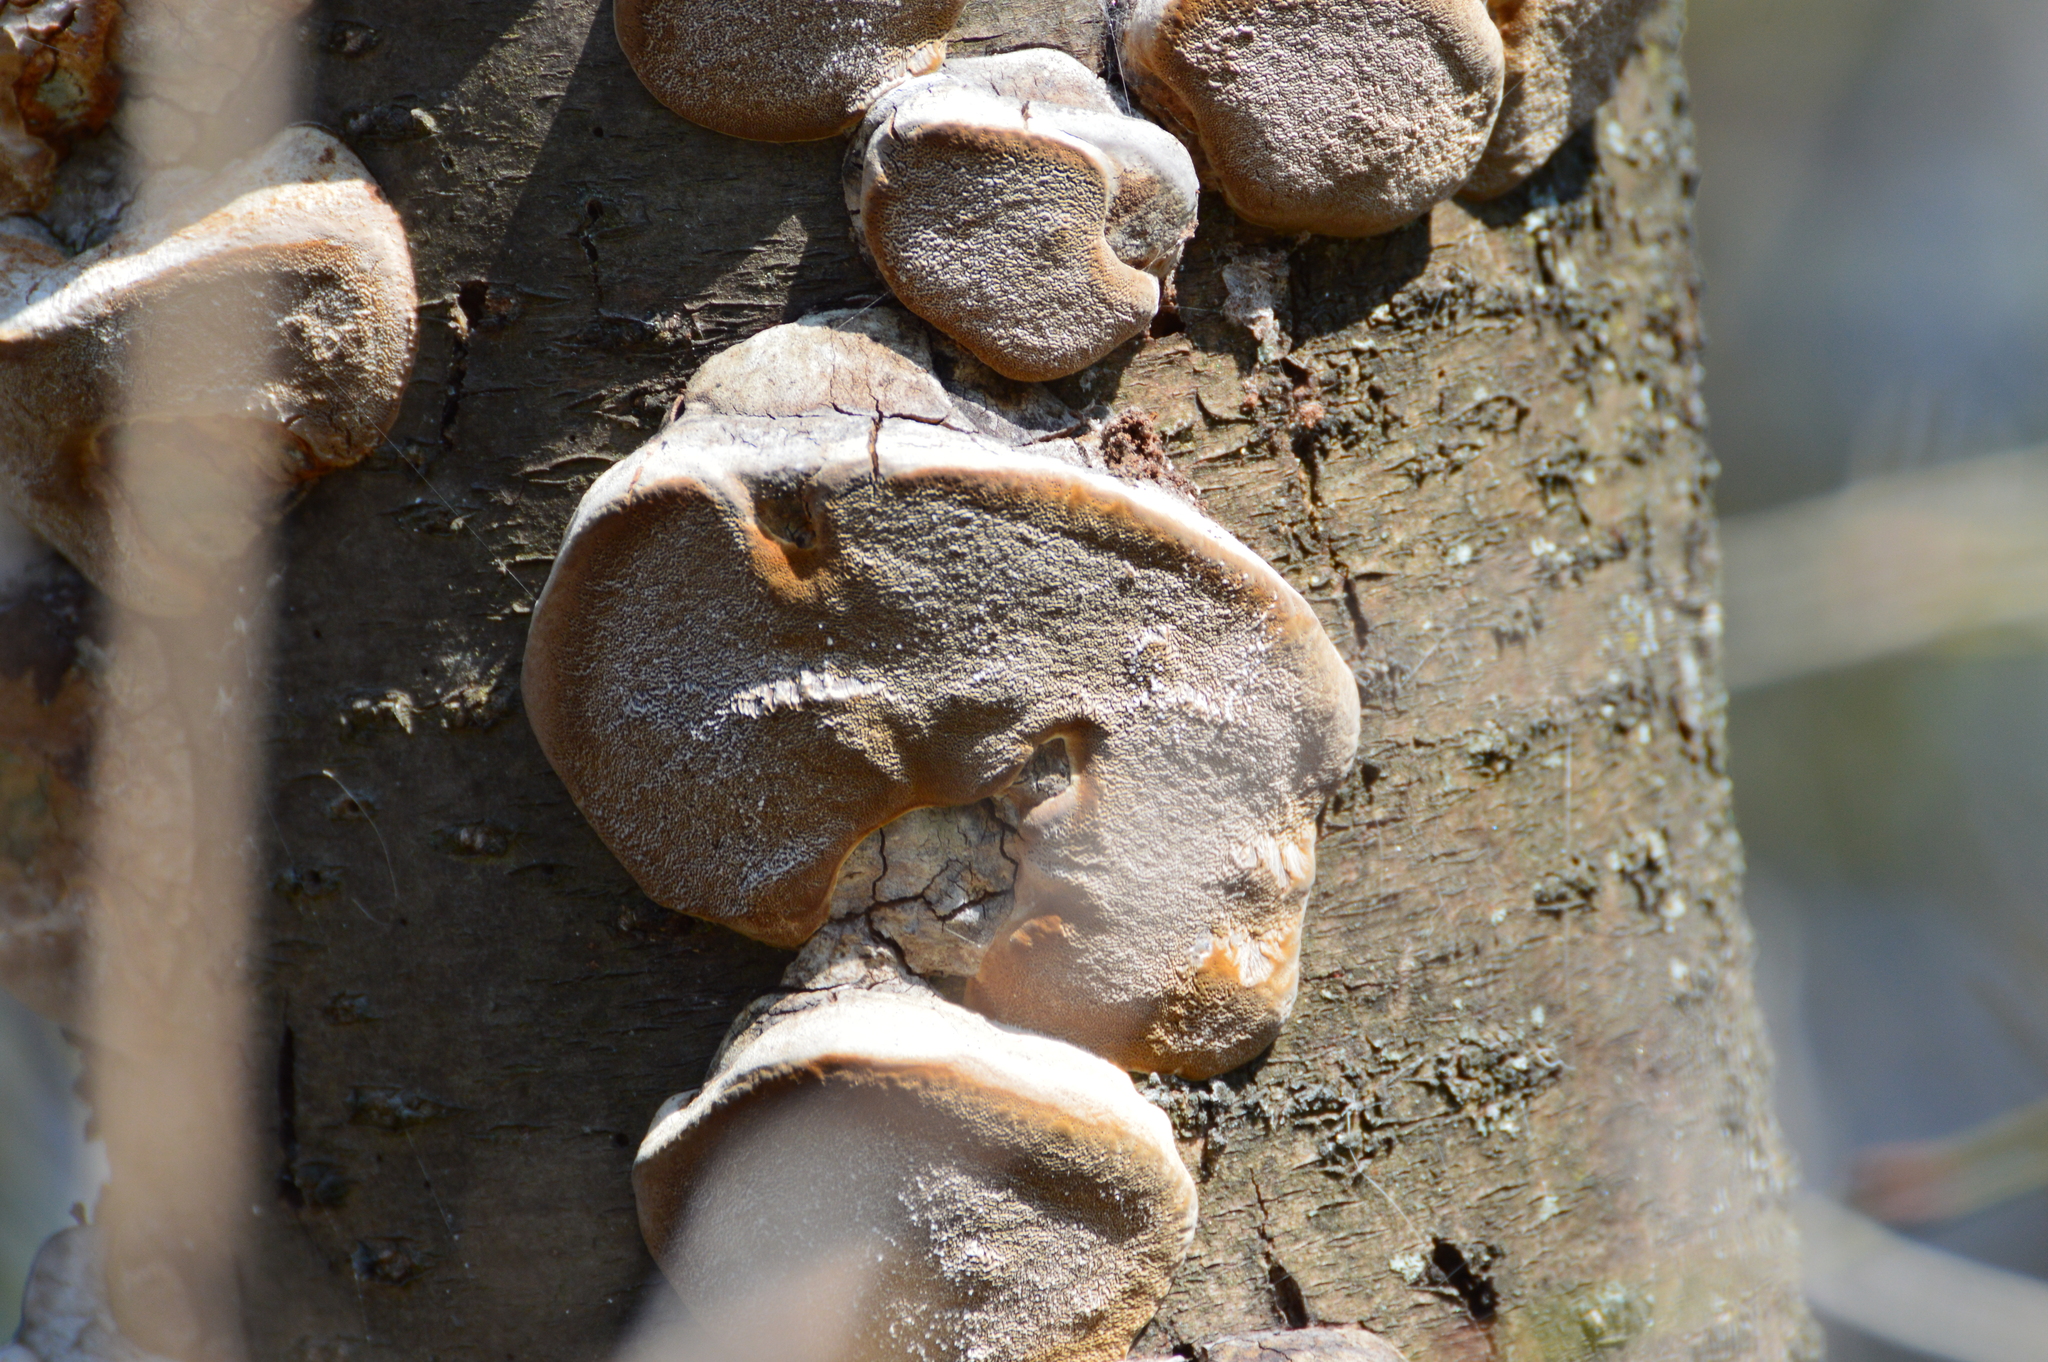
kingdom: Fungi
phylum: Basidiomycota
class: Agaricomycetes
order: Hymenochaetales
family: Hymenochaetaceae
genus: Phellinus
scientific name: Phellinus
